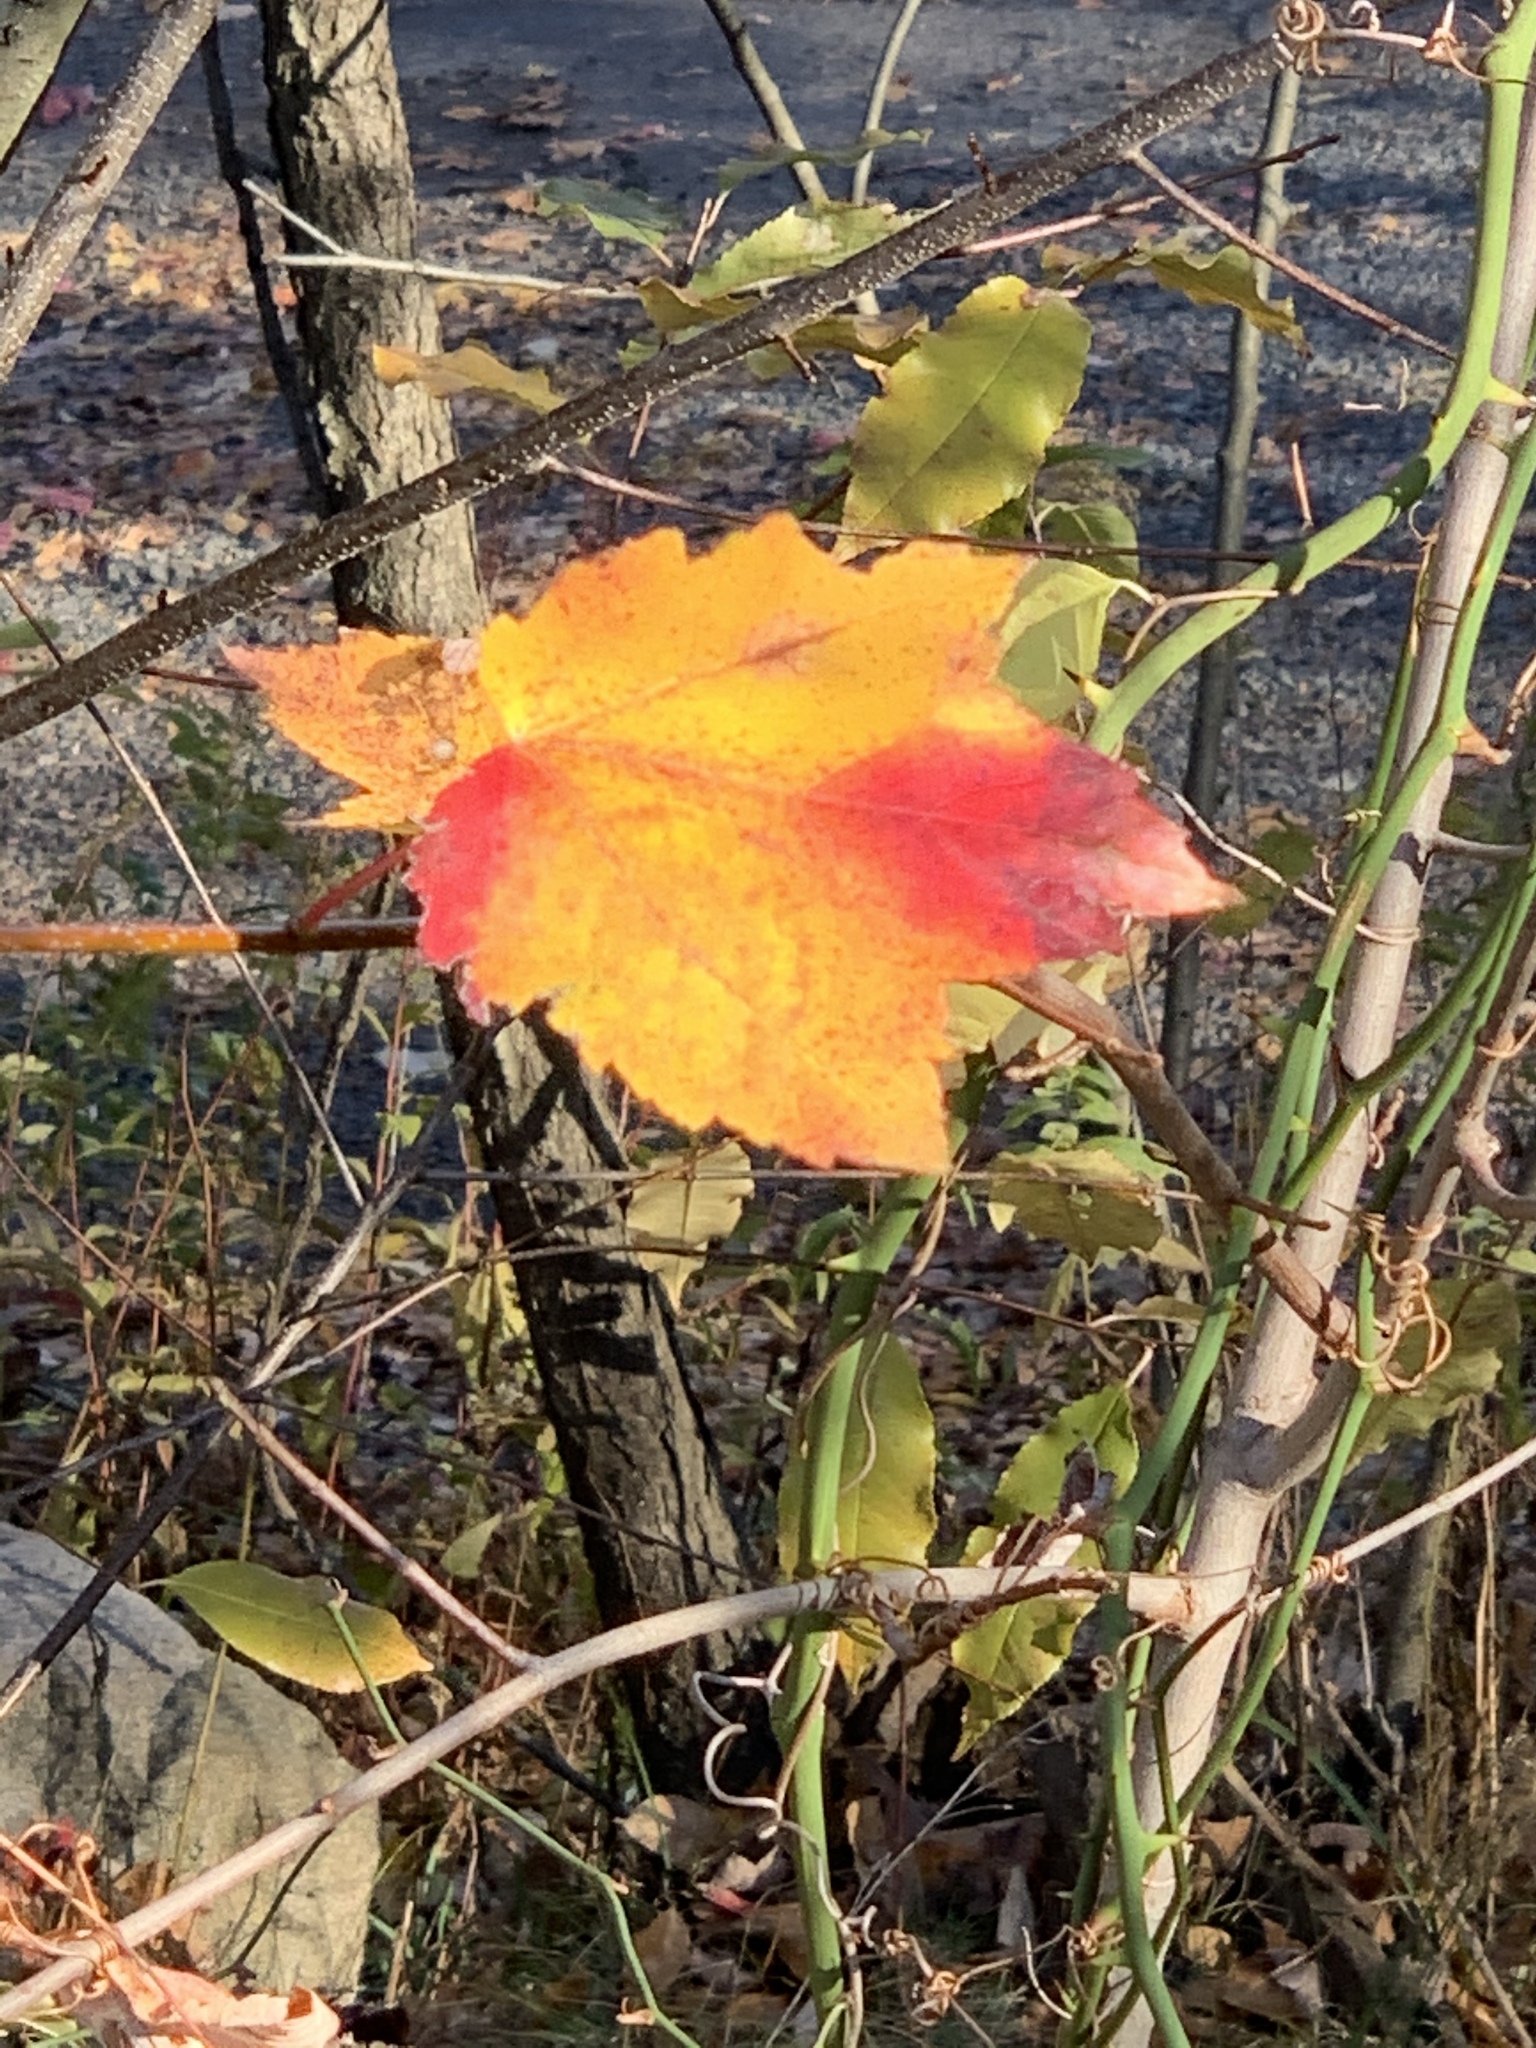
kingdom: Plantae
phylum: Tracheophyta
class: Magnoliopsida
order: Sapindales
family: Sapindaceae
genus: Acer
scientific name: Acer rubrum
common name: Red maple
